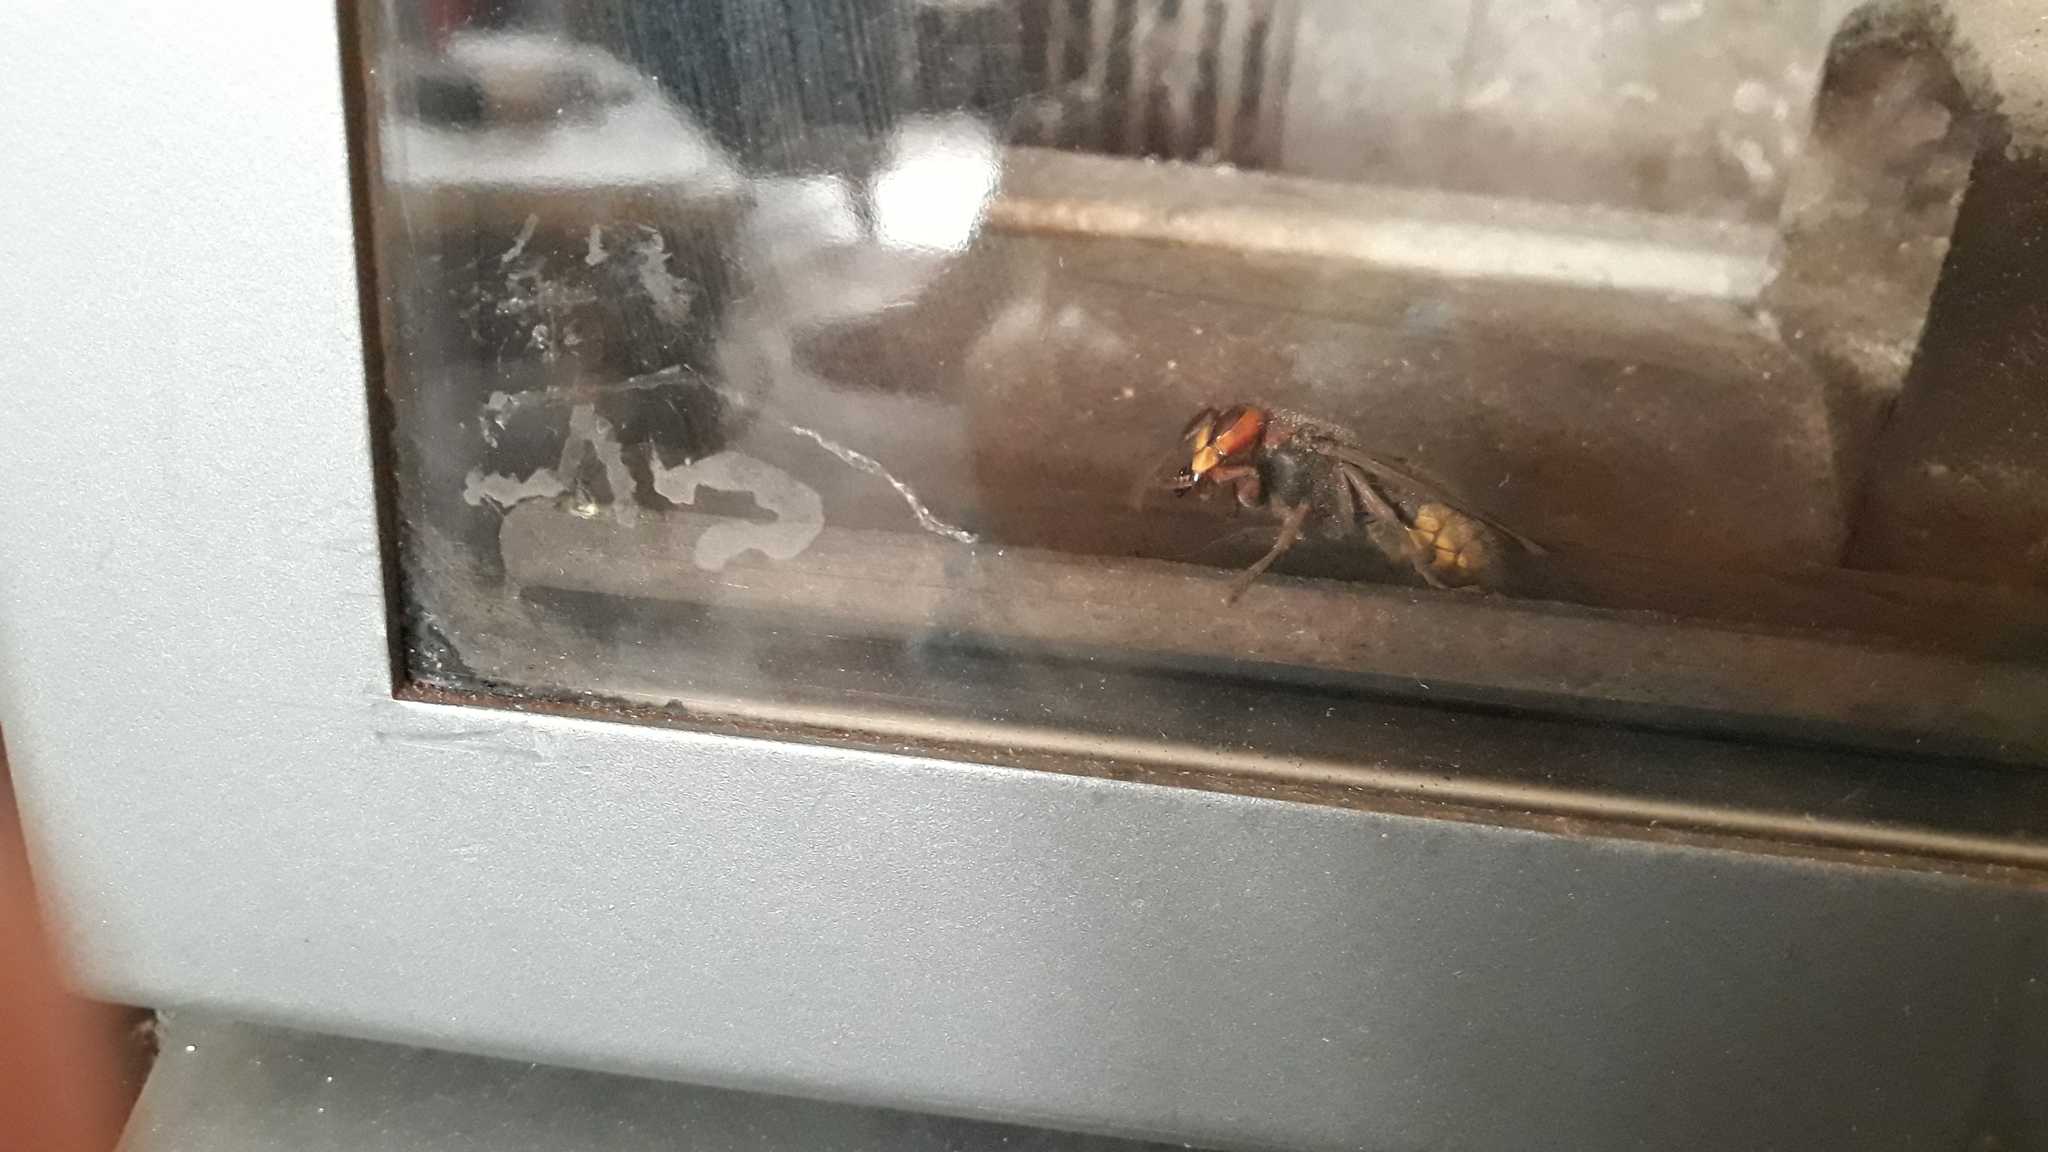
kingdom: Animalia
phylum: Arthropoda
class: Insecta
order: Hymenoptera
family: Vespidae
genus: Vespa
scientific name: Vespa crabro
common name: Hornet
